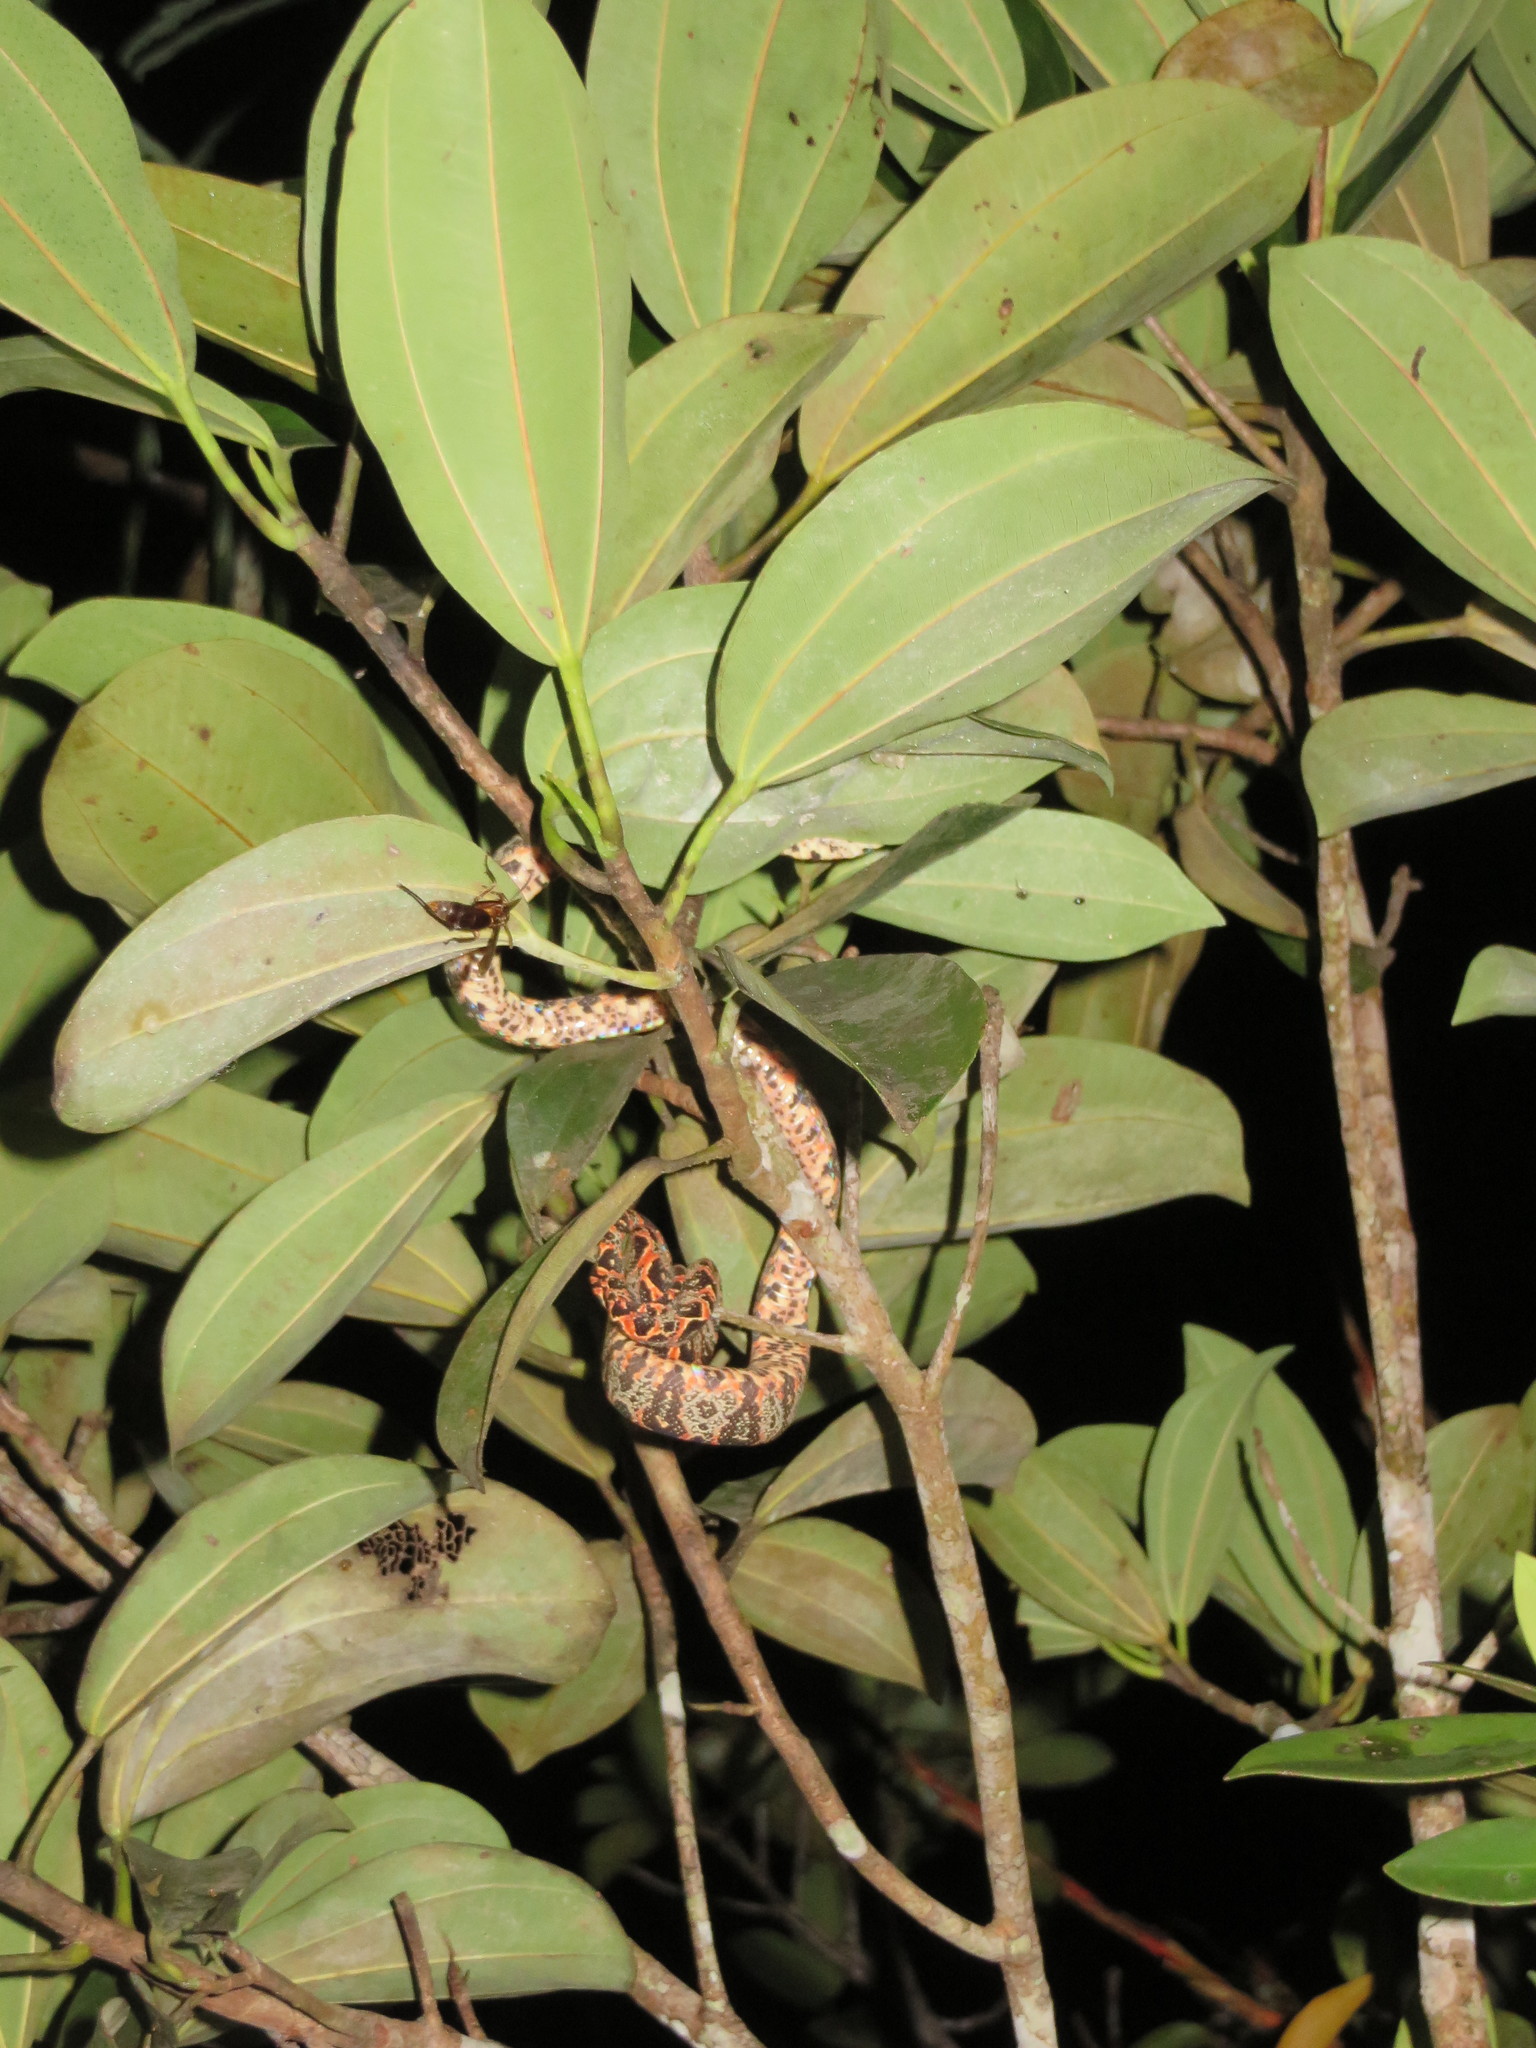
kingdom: Animalia
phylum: Chordata
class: Squamata
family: Boidae
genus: Corallus
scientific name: Corallus hortulana
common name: Garden tree boa
